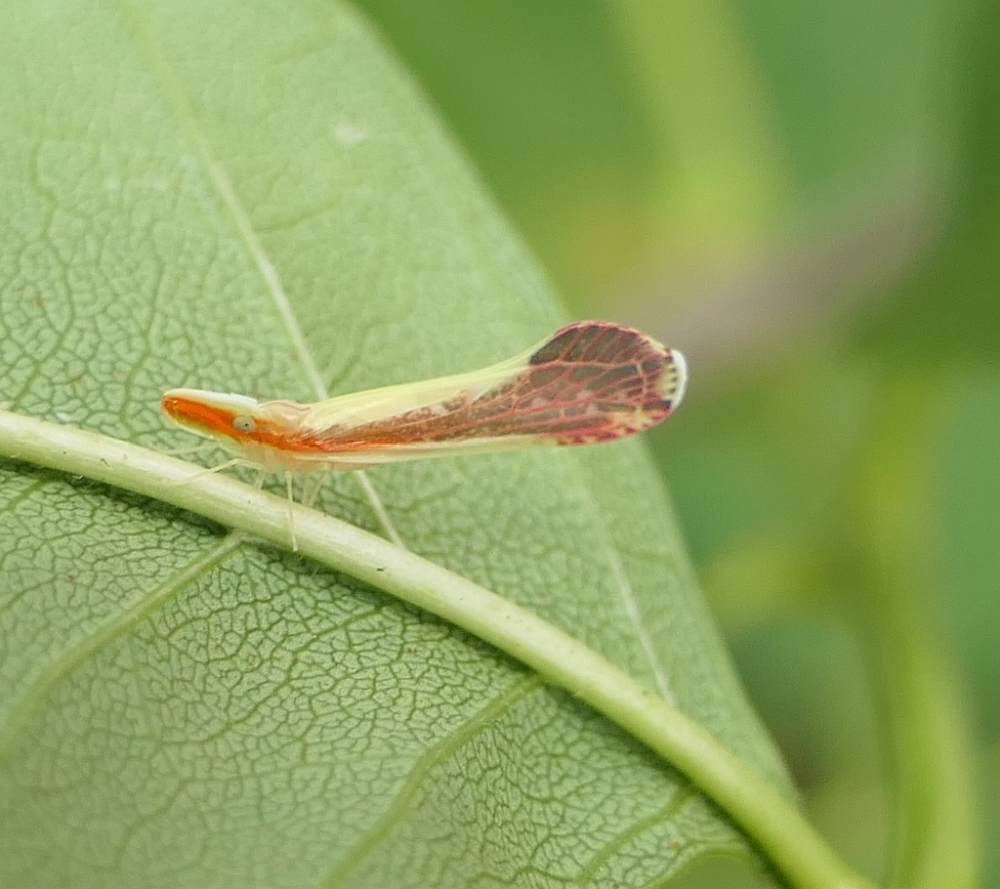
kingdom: Animalia
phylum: Arthropoda
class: Insecta
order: Hemiptera
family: Derbidae
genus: Shellenius
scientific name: Shellenius ballii
